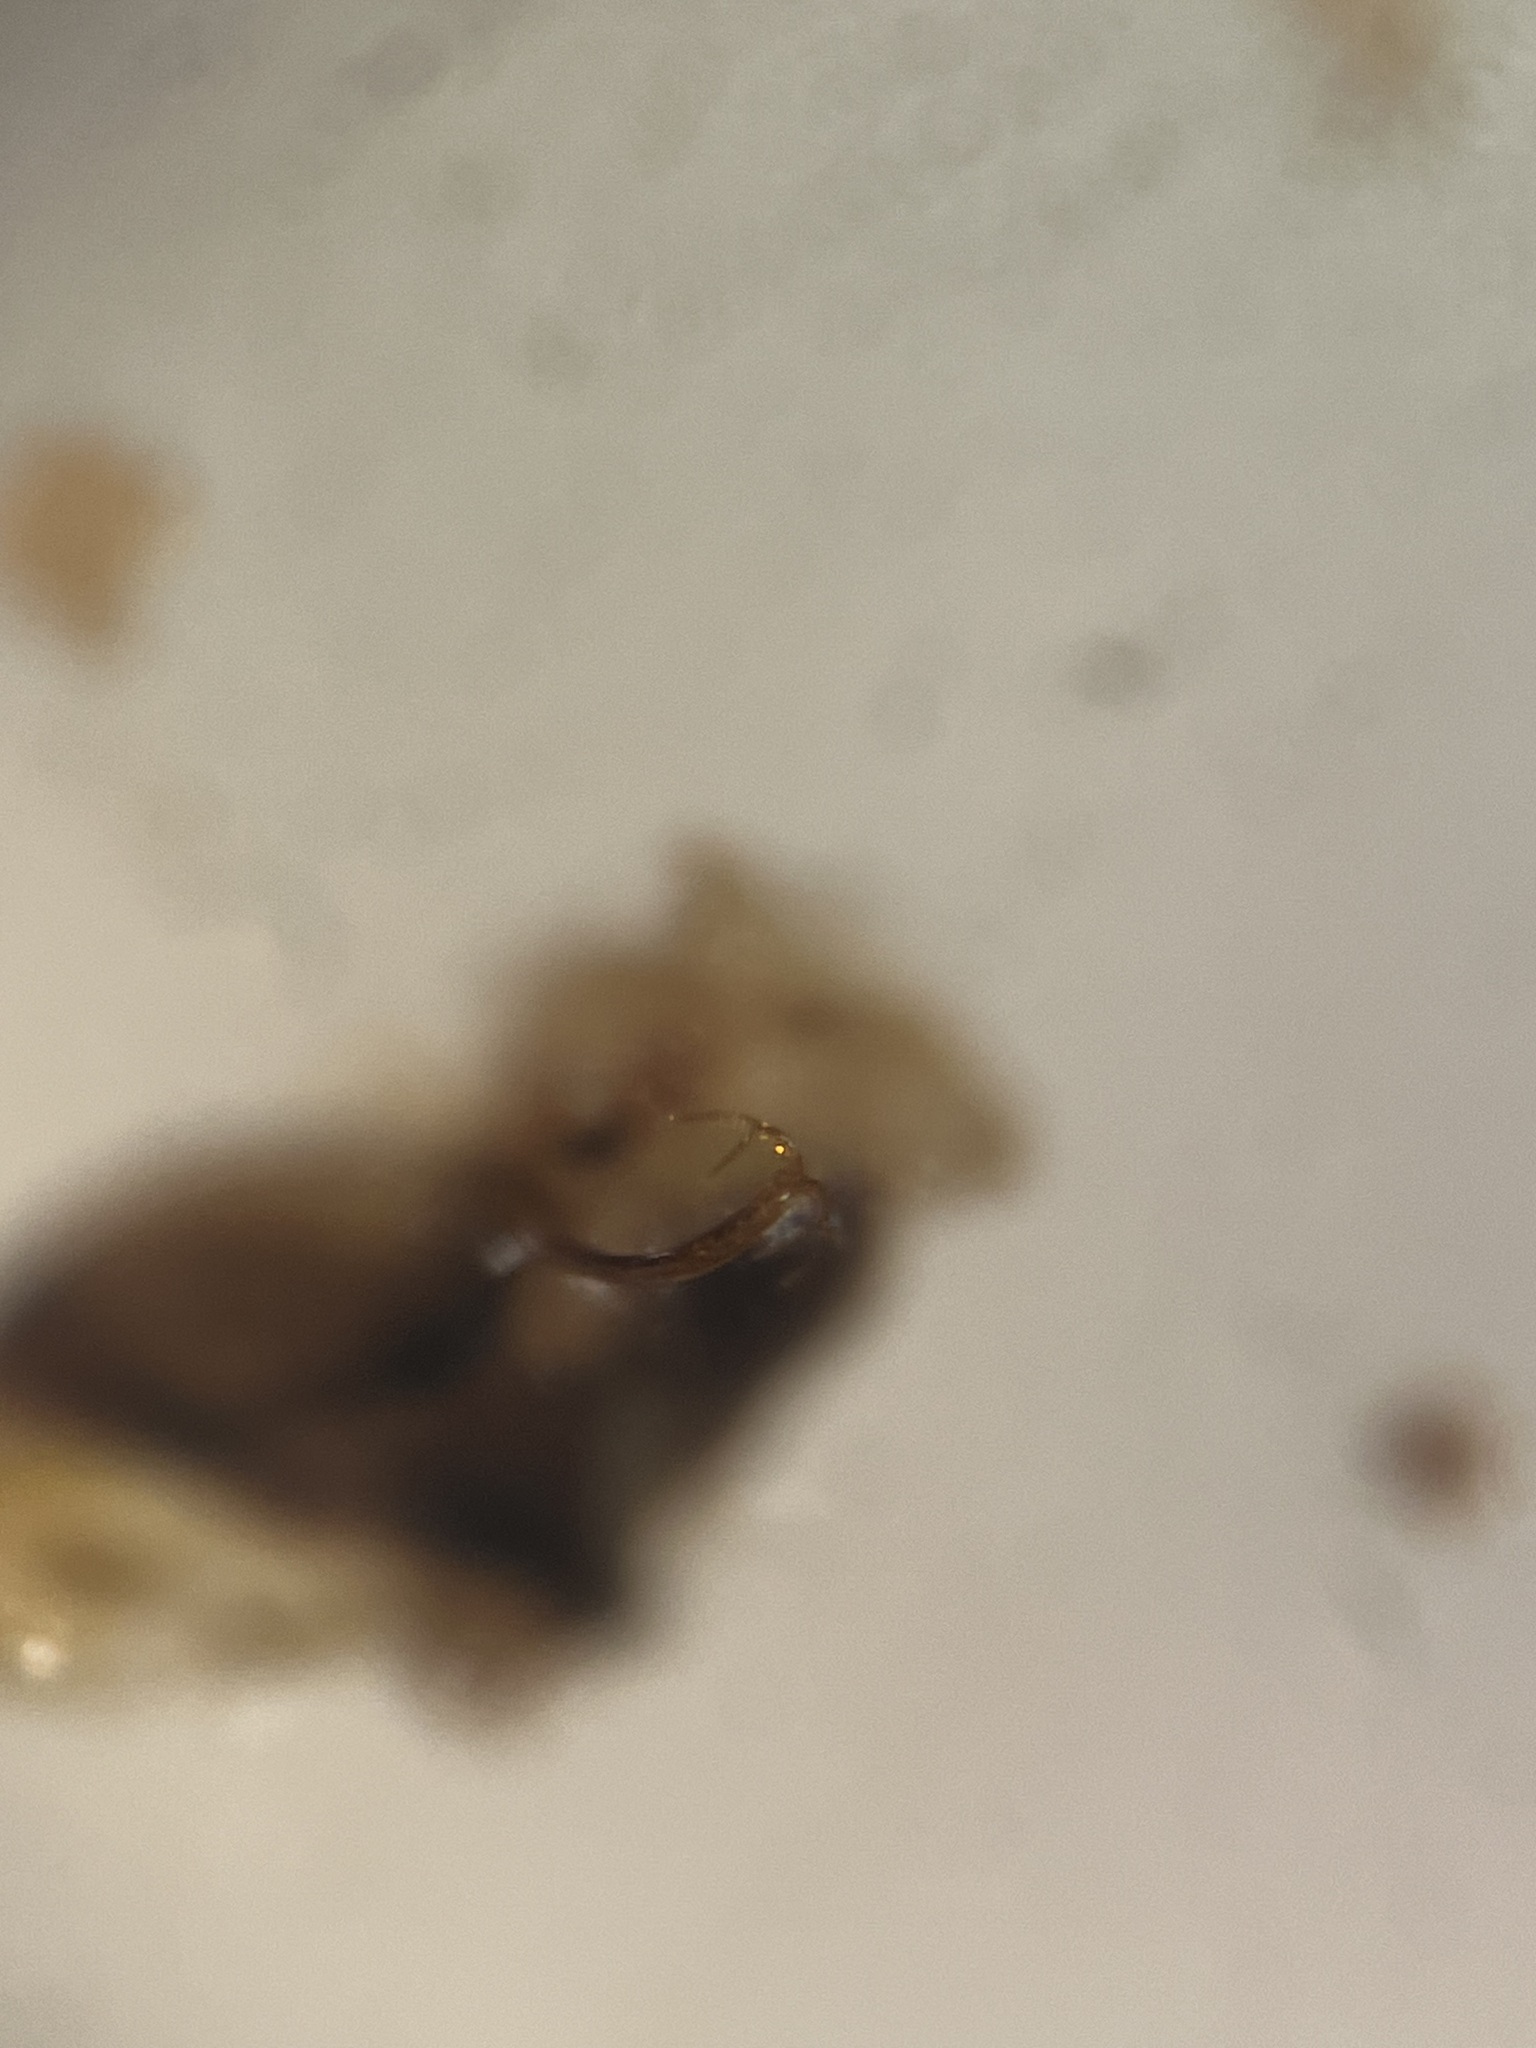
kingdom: Animalia
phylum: Arthropoda
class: Insecta
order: Hemiptera
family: Cicadellidae
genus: Eupteryx
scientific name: Eupteryx curtisii
